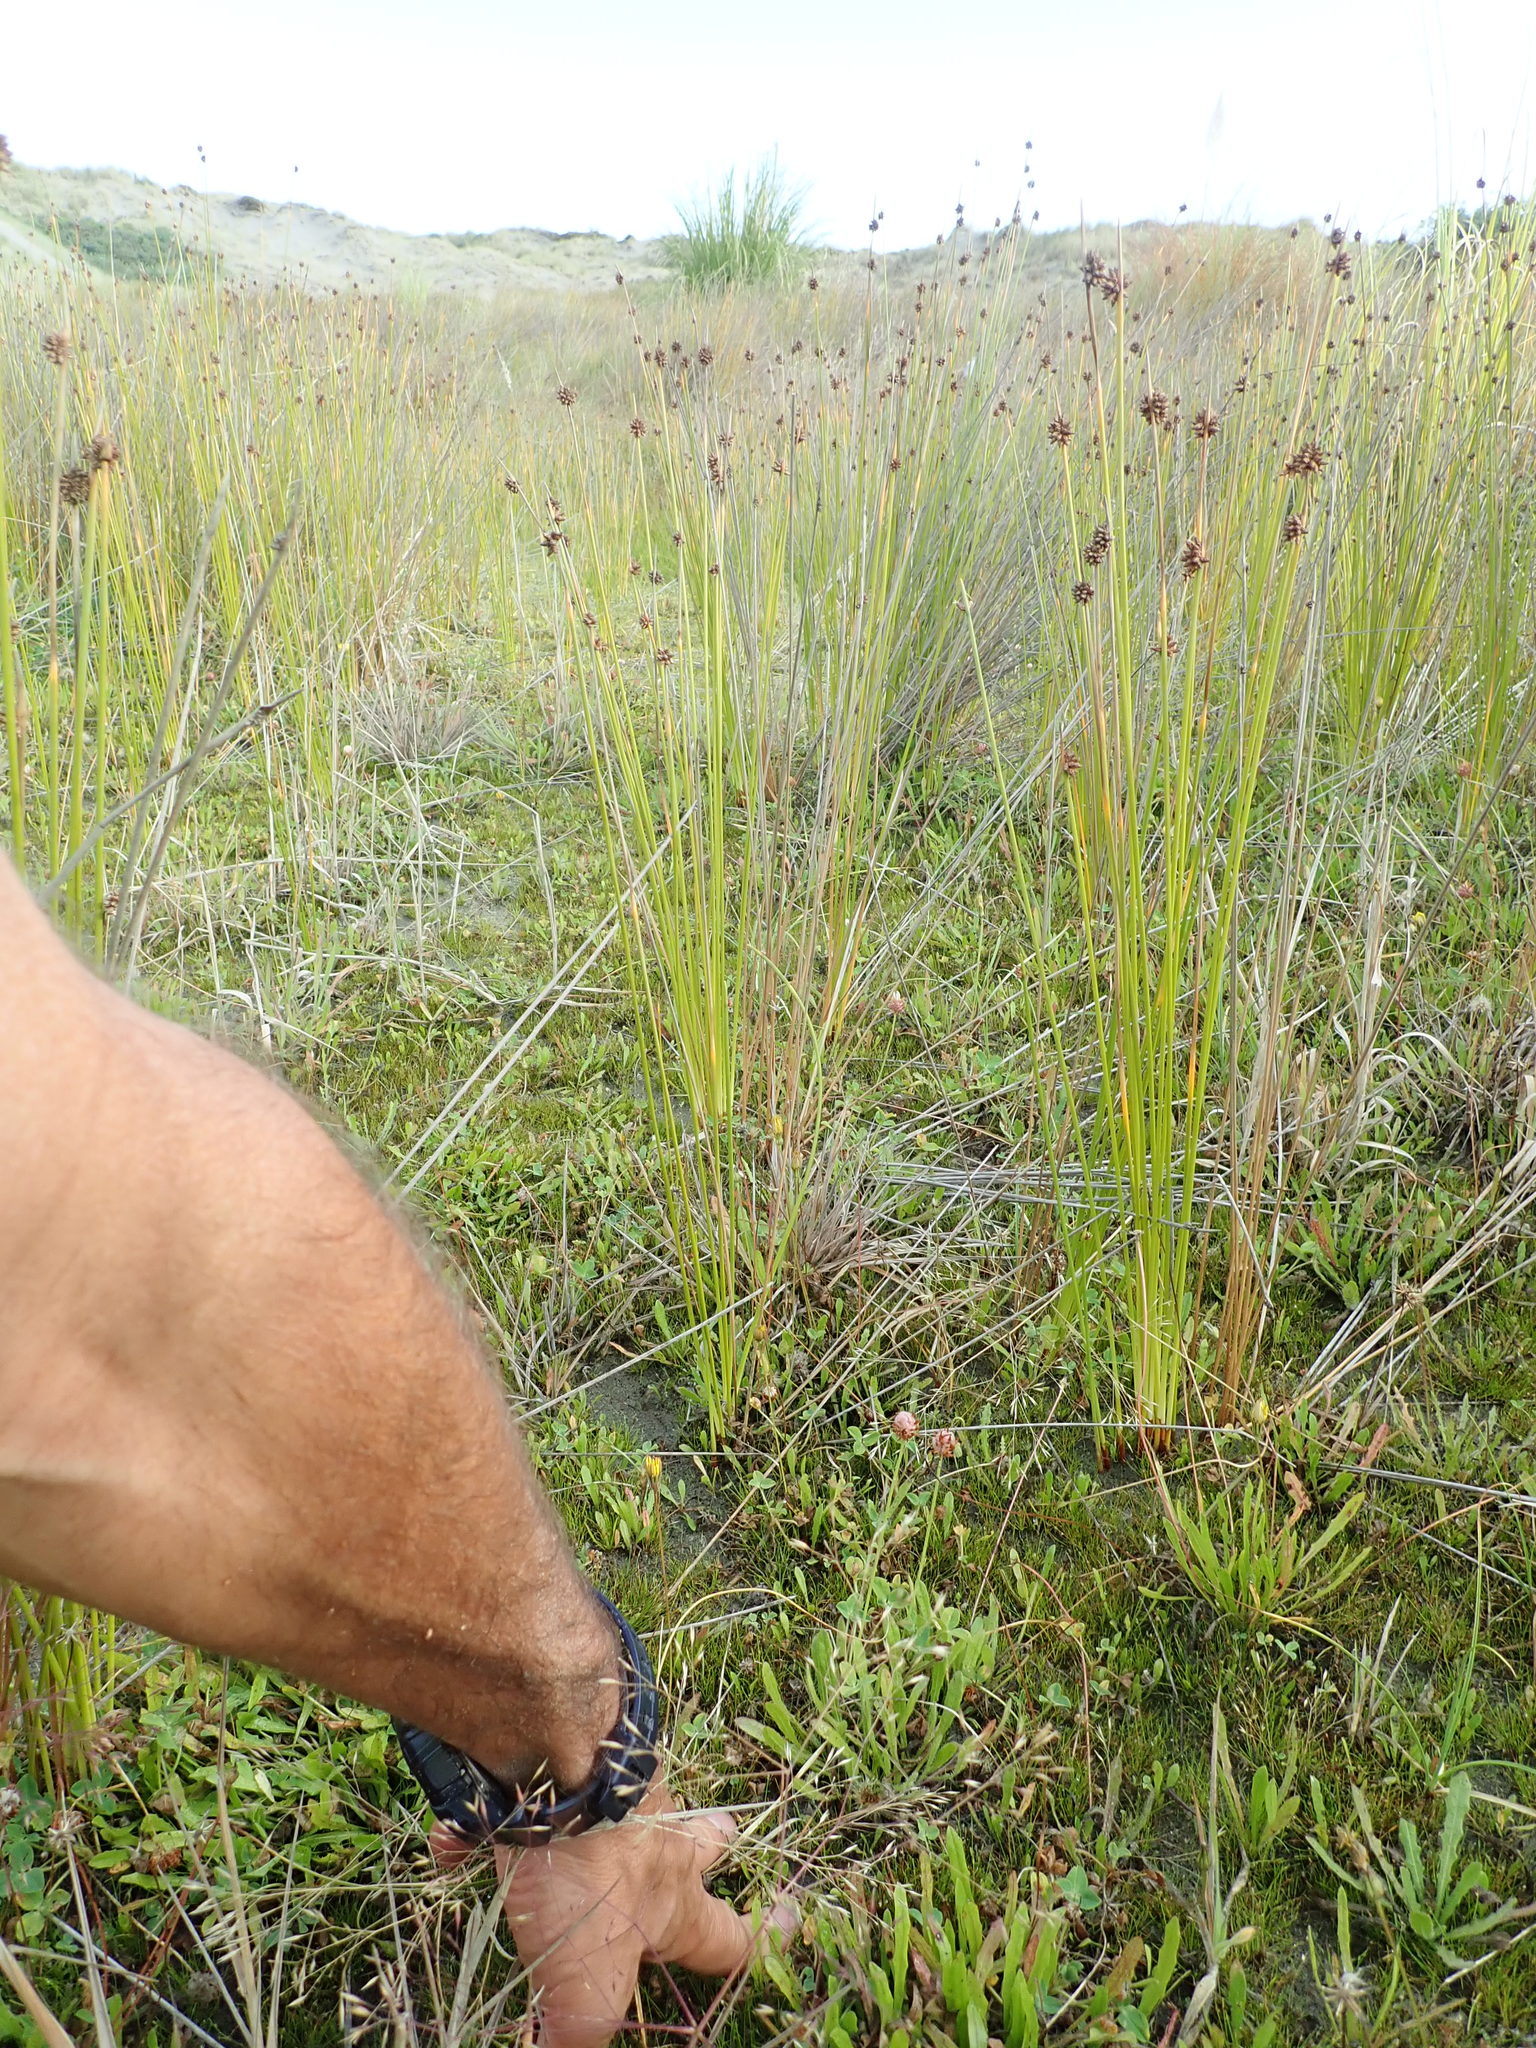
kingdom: Plantae
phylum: Tracheophyta
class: Magnoliopsida
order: Fabales
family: Fabaceae
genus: Trifolium
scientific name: Trifolium fragiferum
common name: Strawberry clover
